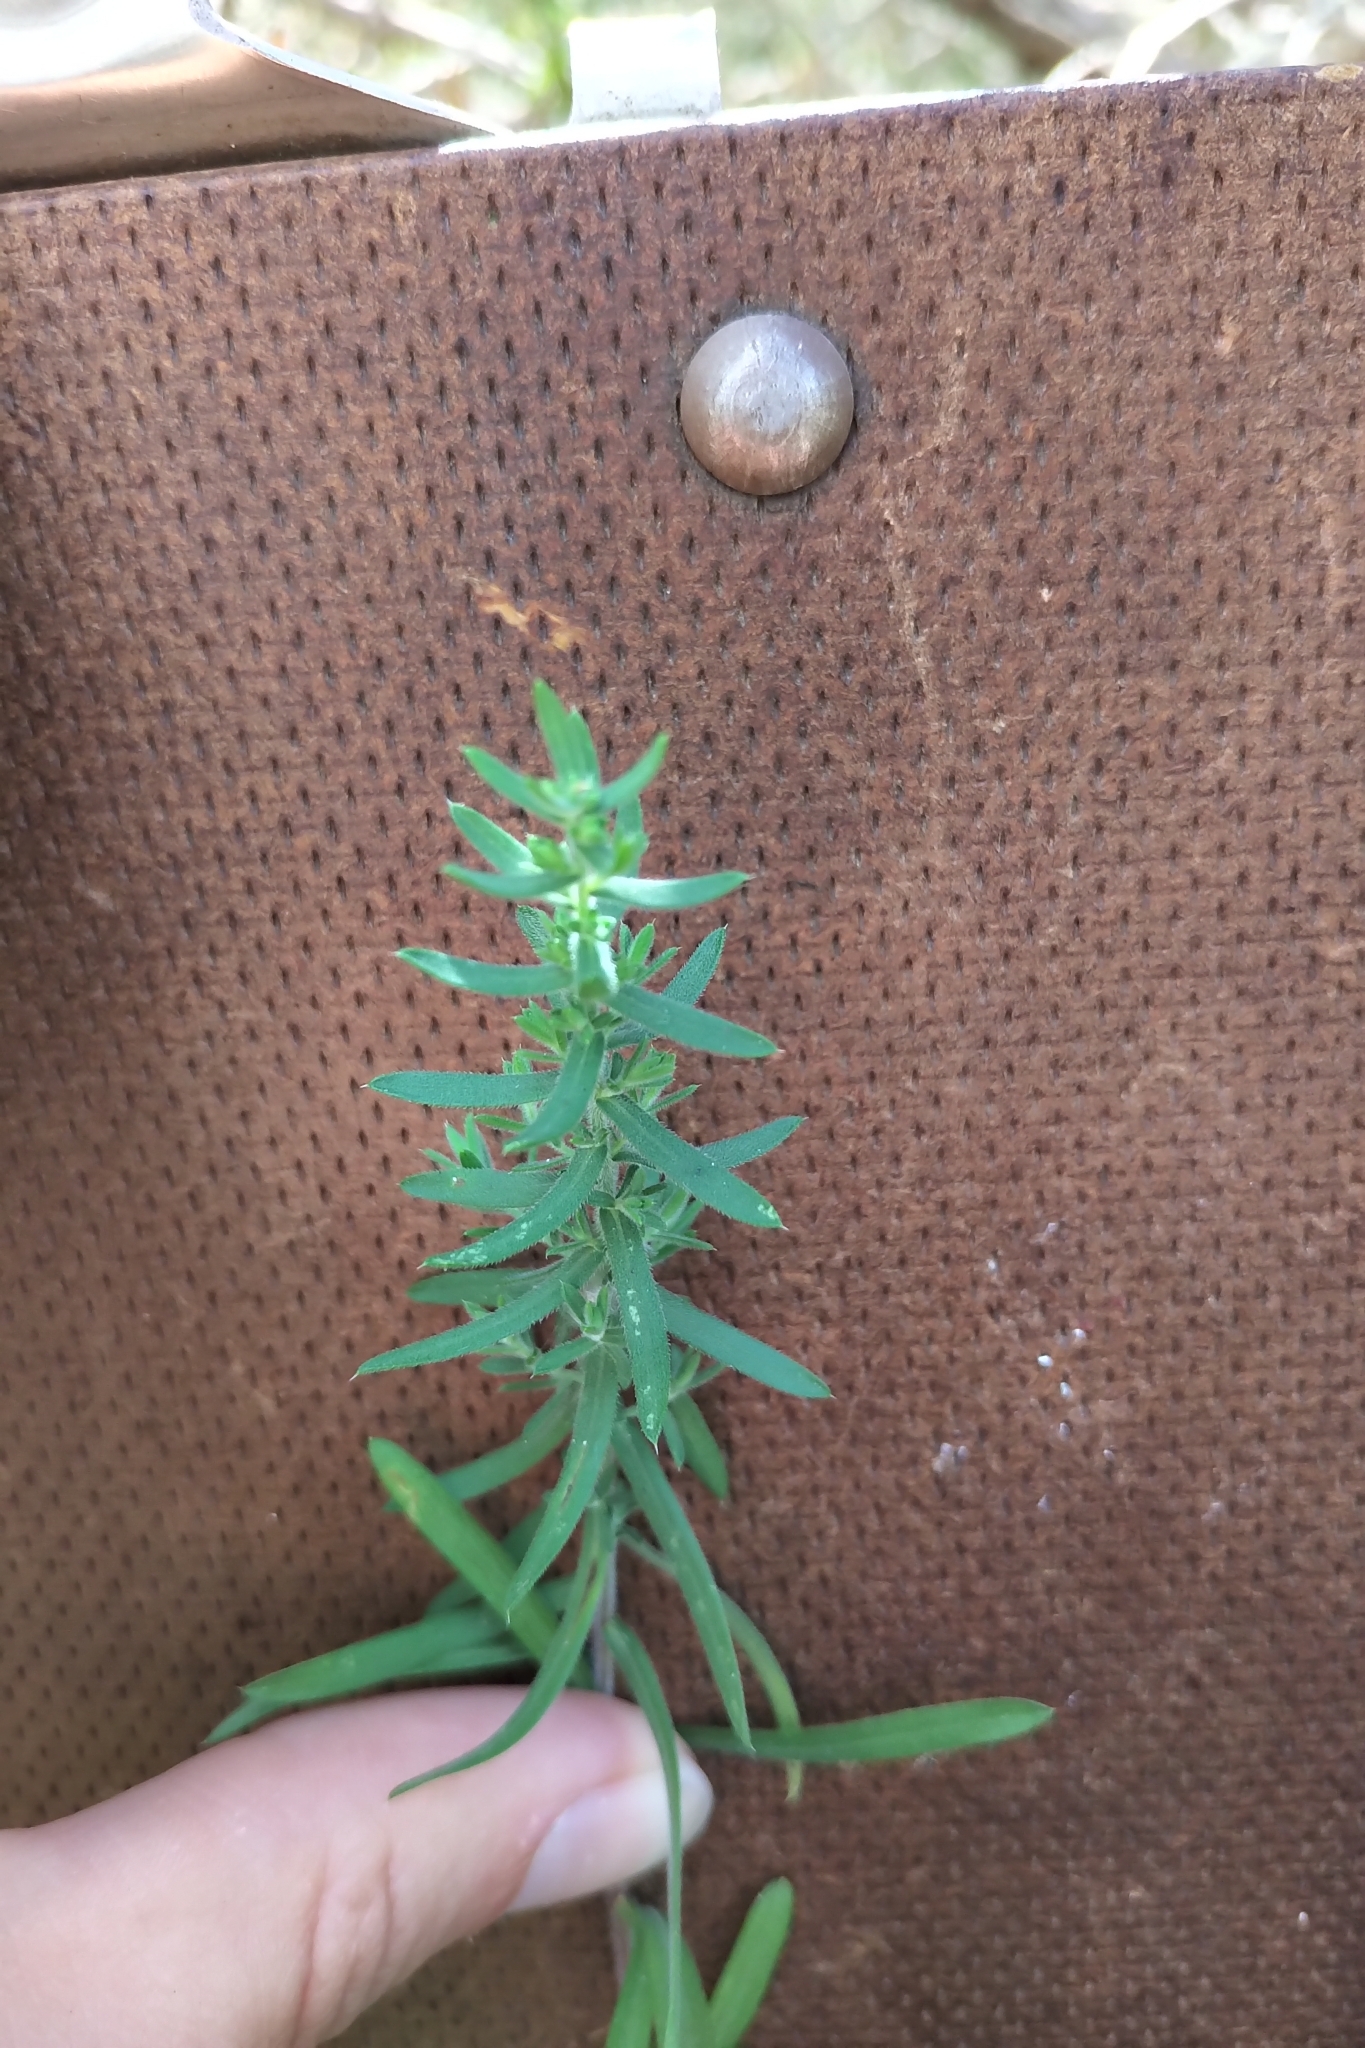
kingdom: Plantae
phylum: Tracheophyta
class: Magnoliopsida
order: Asterales
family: Asteraceae
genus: Symphyotrichum
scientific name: Symphyotrichum ericoides
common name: Heath aster
